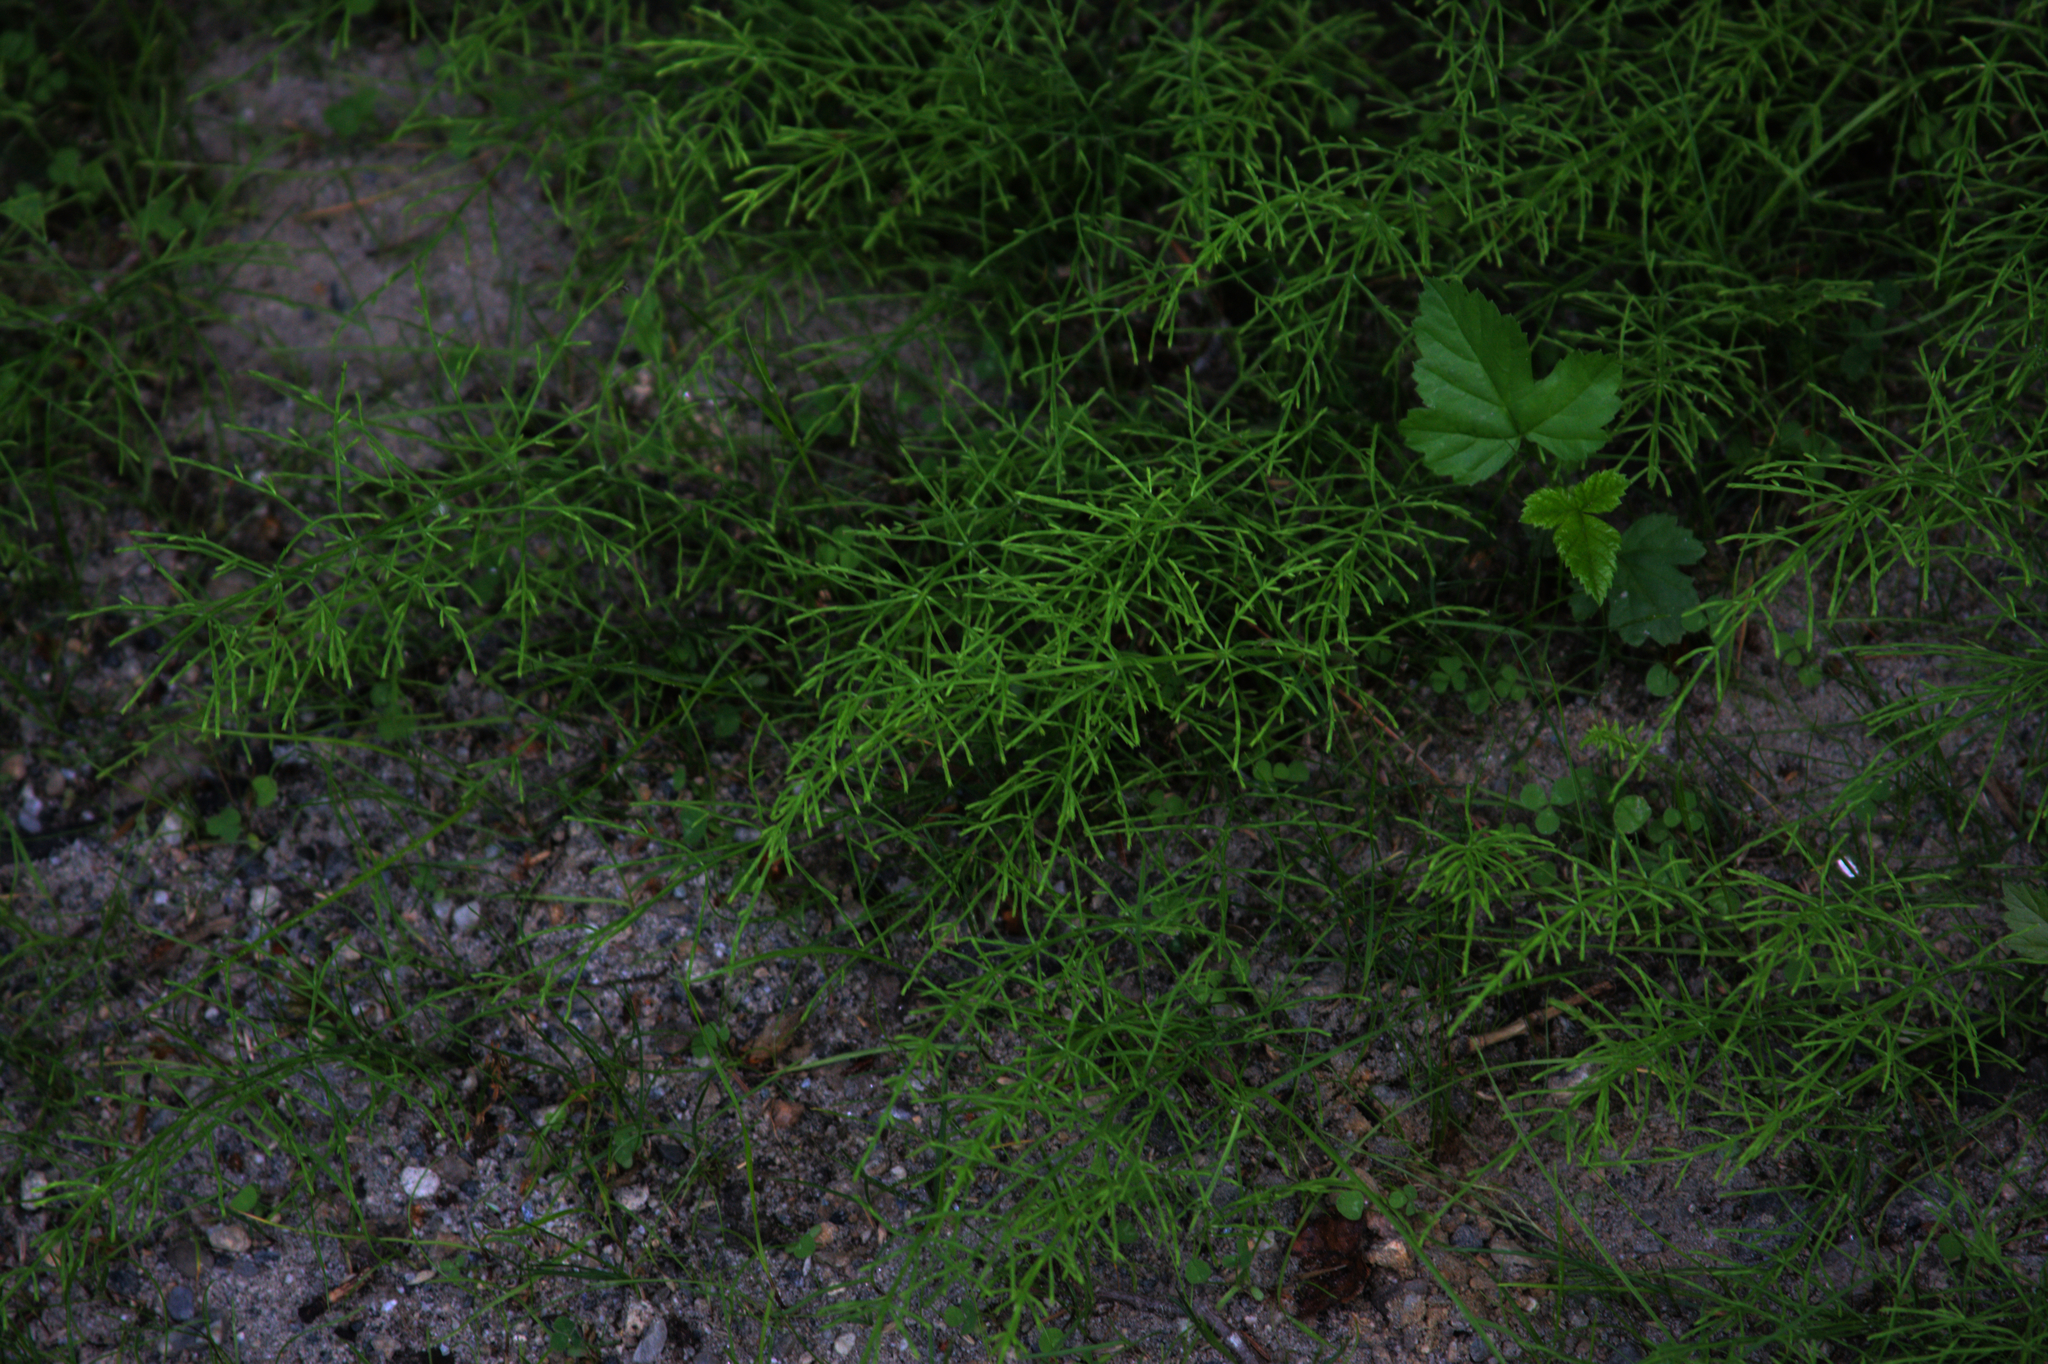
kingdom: Plantae
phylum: Tracheophyta
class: Polypodiopsida
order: Equisetales
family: Equisetaceae
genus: Equisetum
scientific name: Equisetum arvense
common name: Field horsetail
